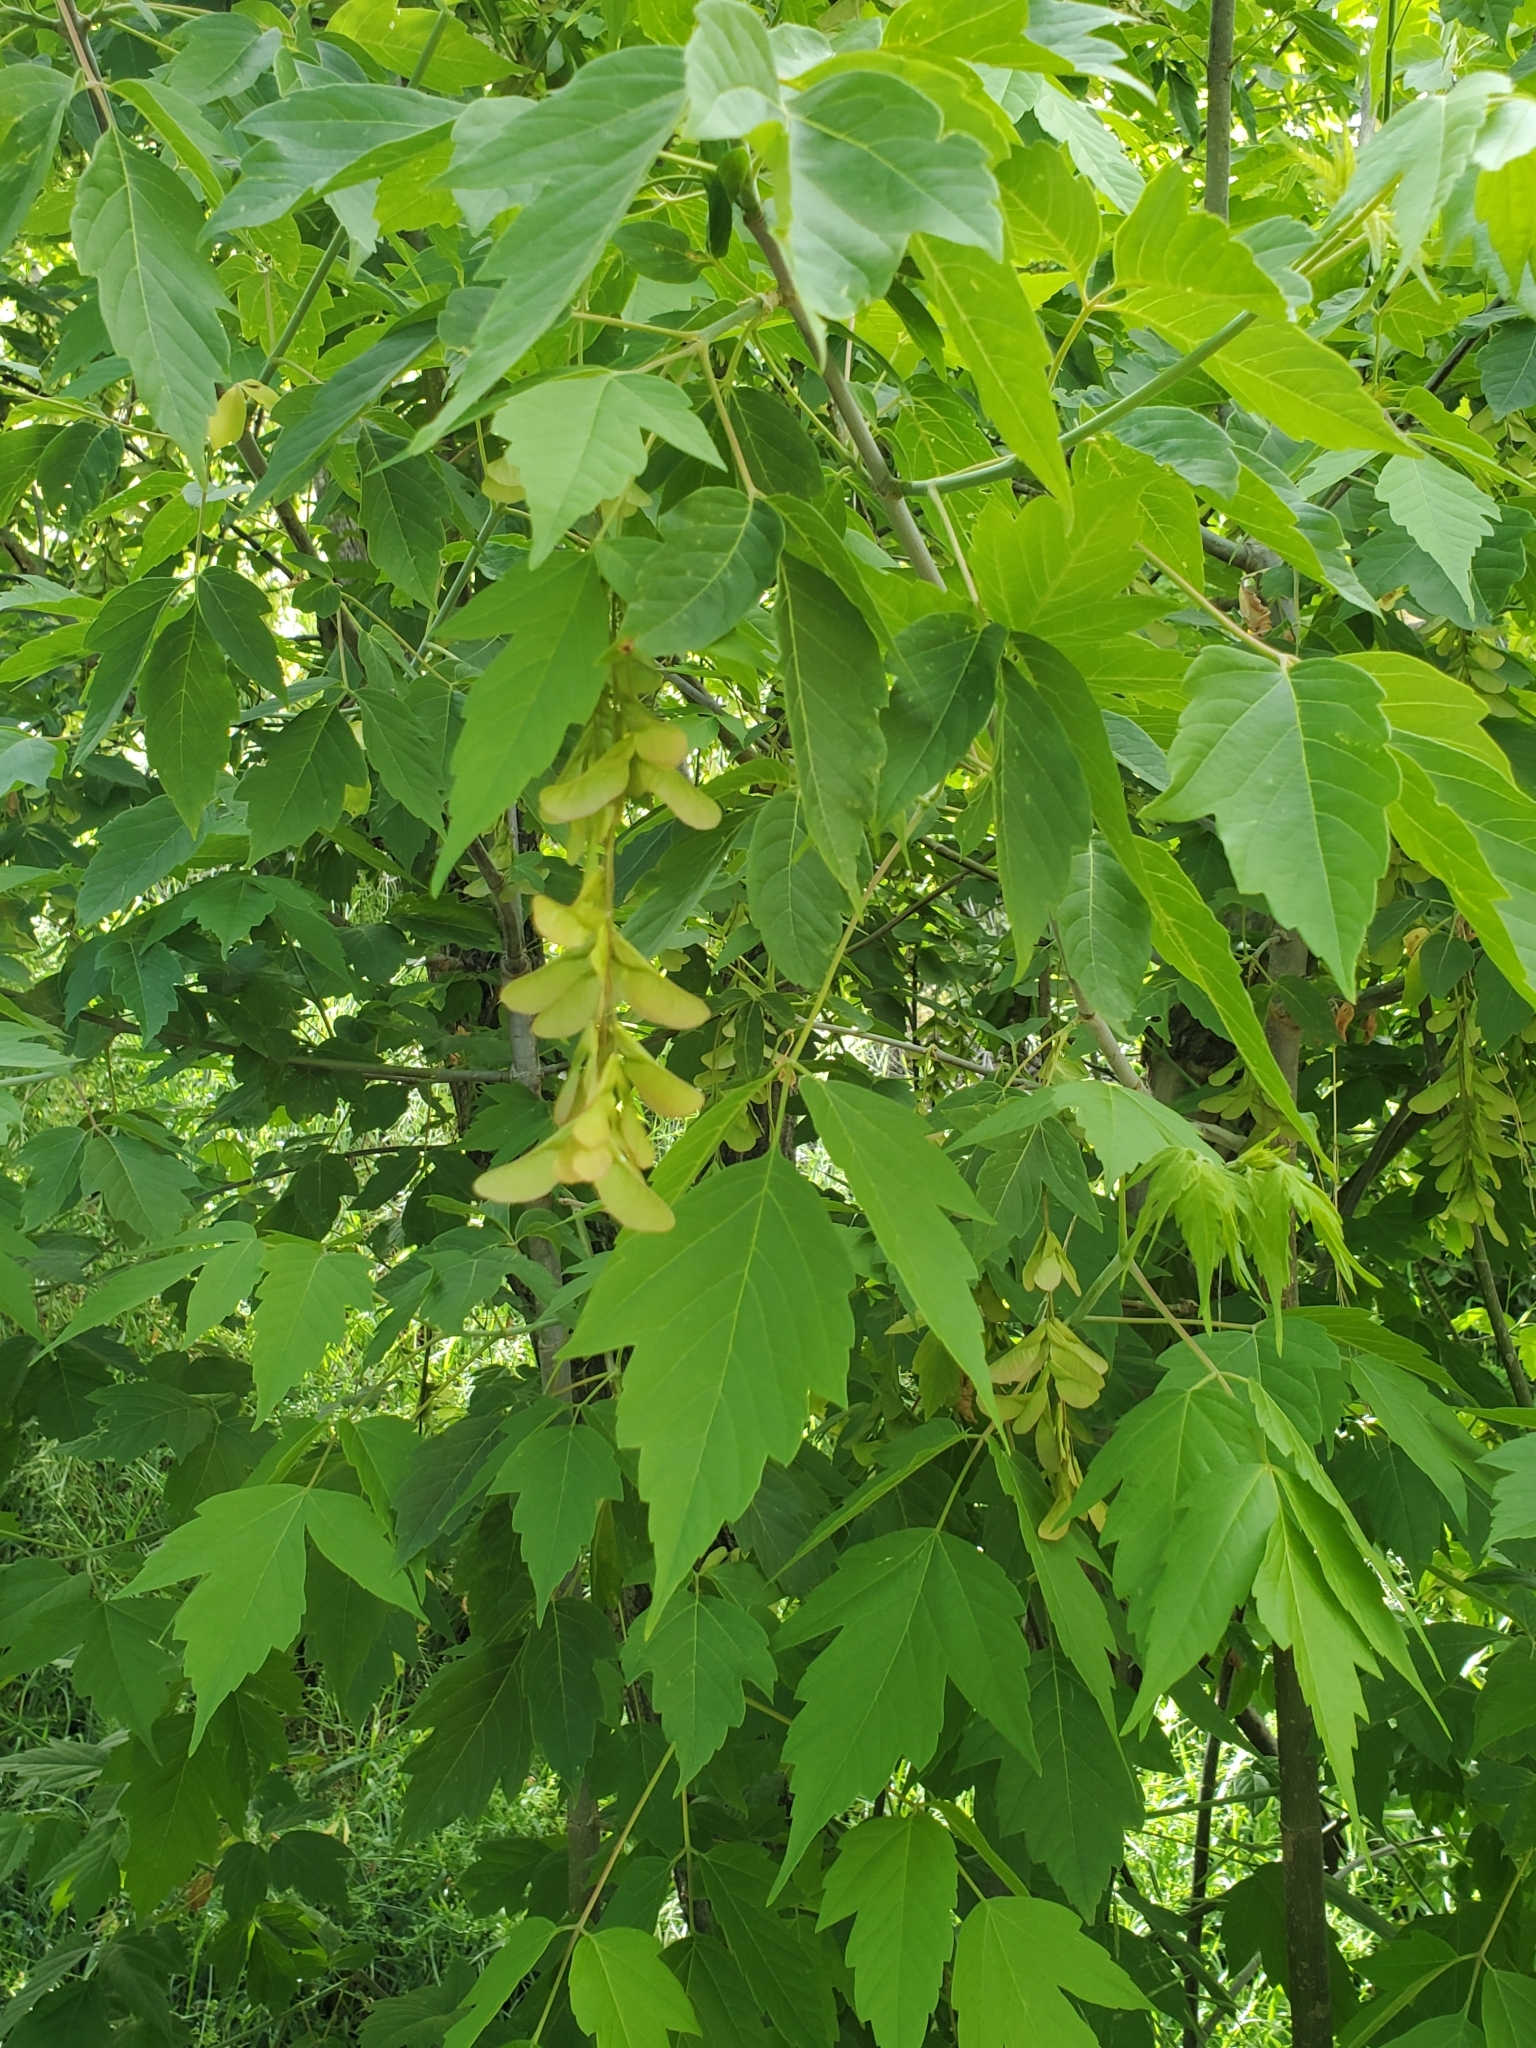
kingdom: Plantae
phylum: Tracheophyta
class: Magnoliopsida
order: Sapindales
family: Sapindaceae
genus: Acer
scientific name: Acer negundo
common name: Ashleaf maple
